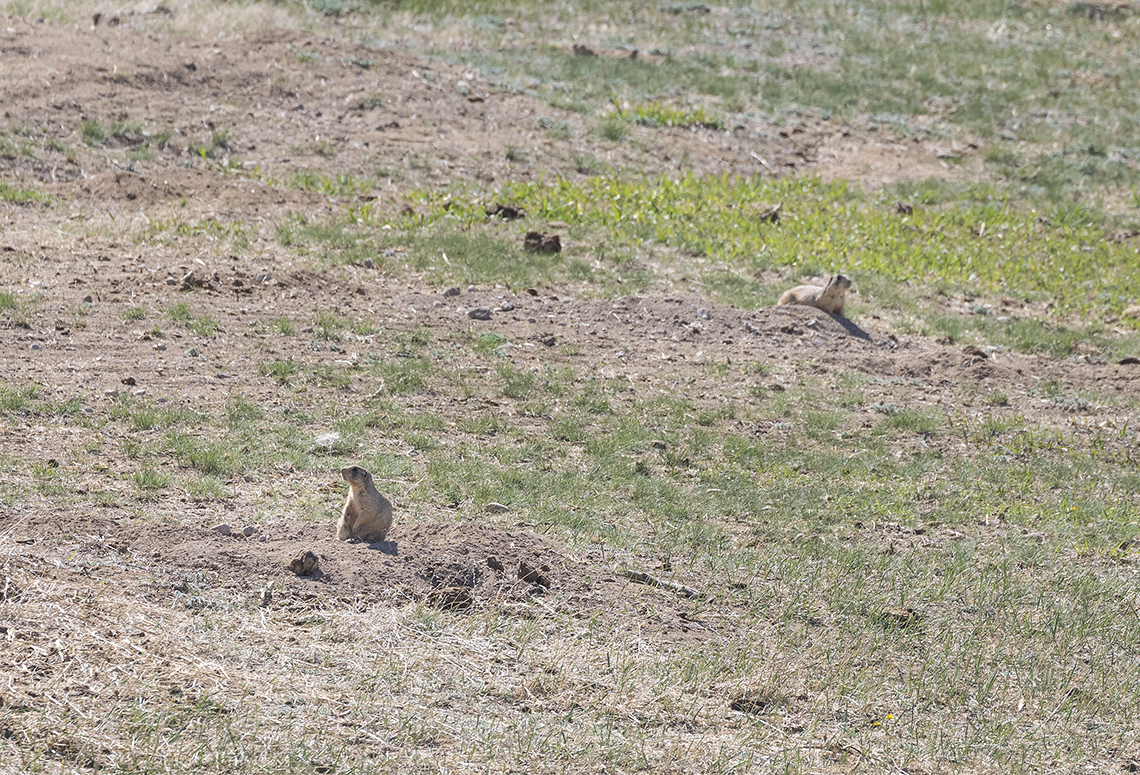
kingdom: Animalia
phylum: Chordata
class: Mammalia
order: Rodentia
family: Sciuridae
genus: Cynomys
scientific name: Cynomys leucurus
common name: White-tailed prairie dog
